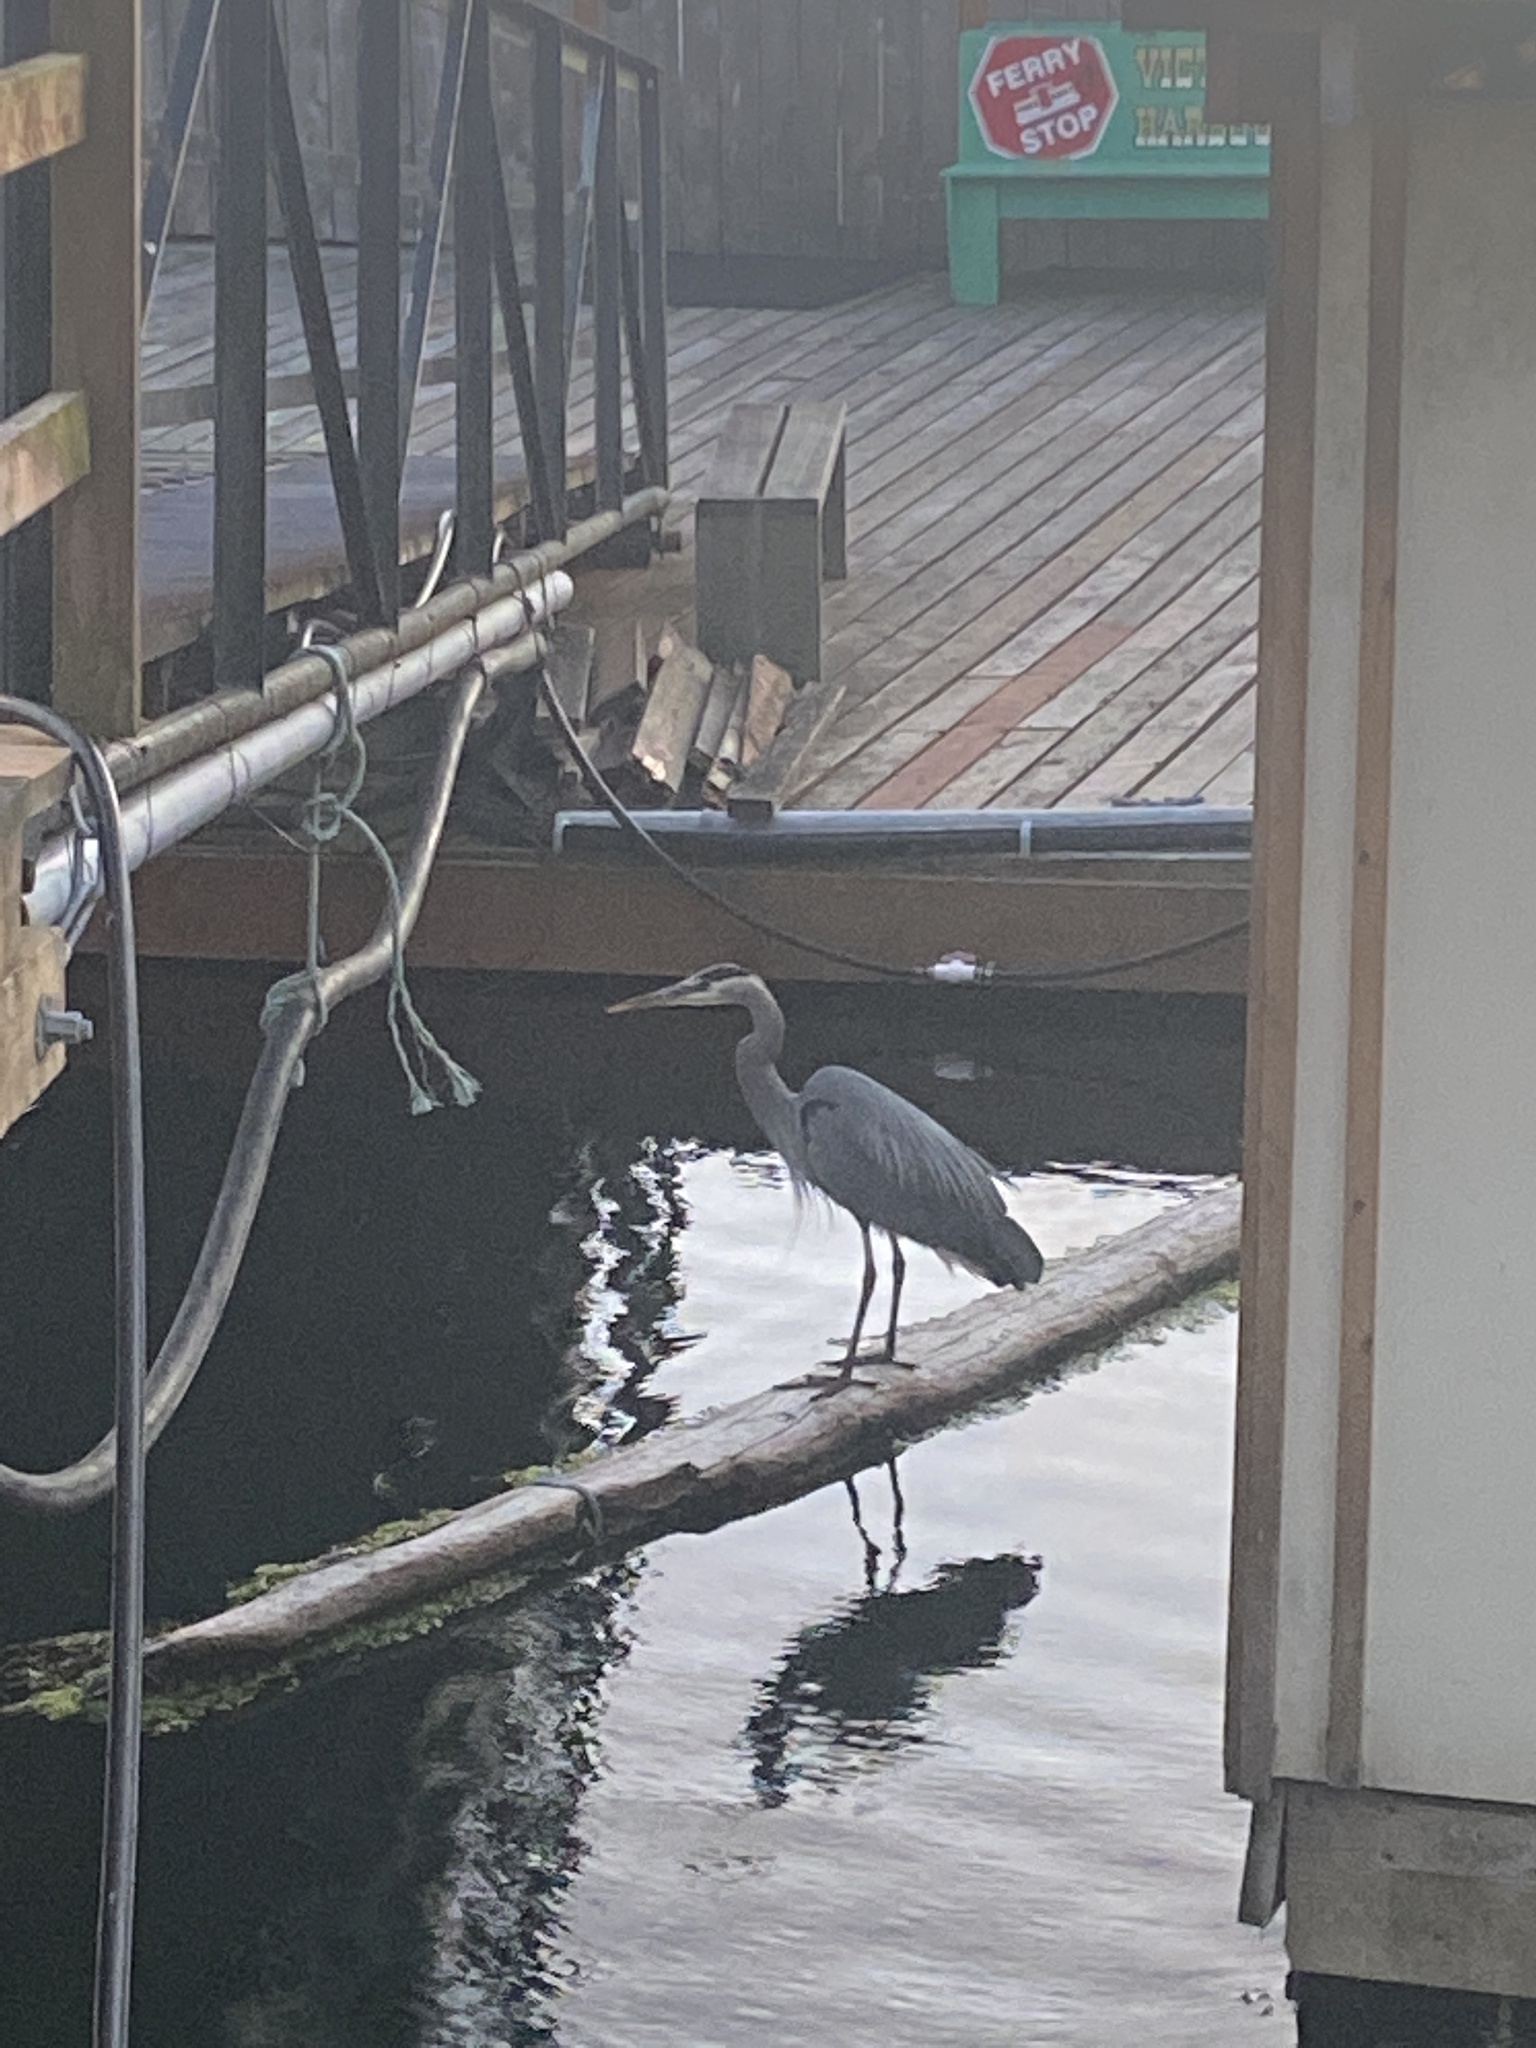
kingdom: Animalia
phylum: Chordata
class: Aves
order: Pelecaniformes
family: Ardeidae
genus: Ardea
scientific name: Ardea herodias
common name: Great blue heron
